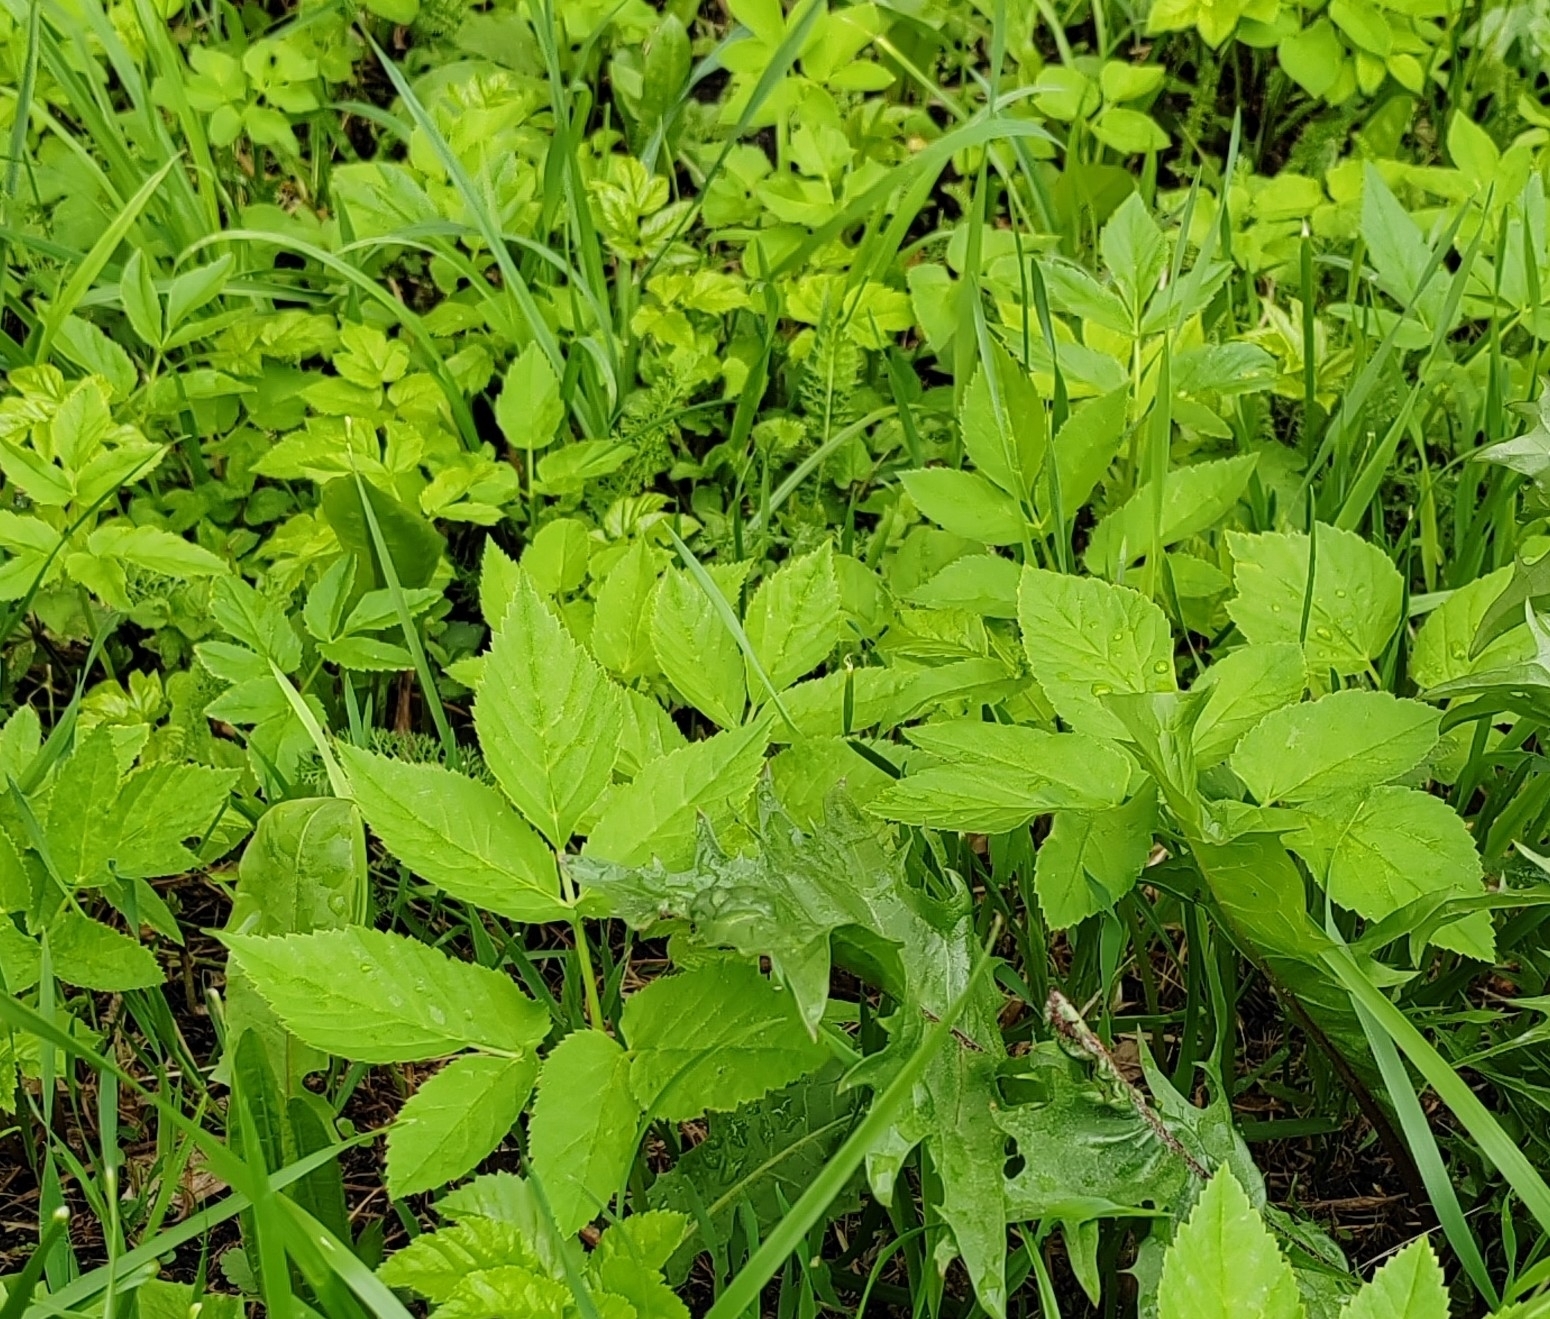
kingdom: Plantae
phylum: Tracheophyta
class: Magnoliopsida
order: Apiales
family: Apiaceae
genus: Aegopodium
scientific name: Aegopodium podagraria
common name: Ground-elder
